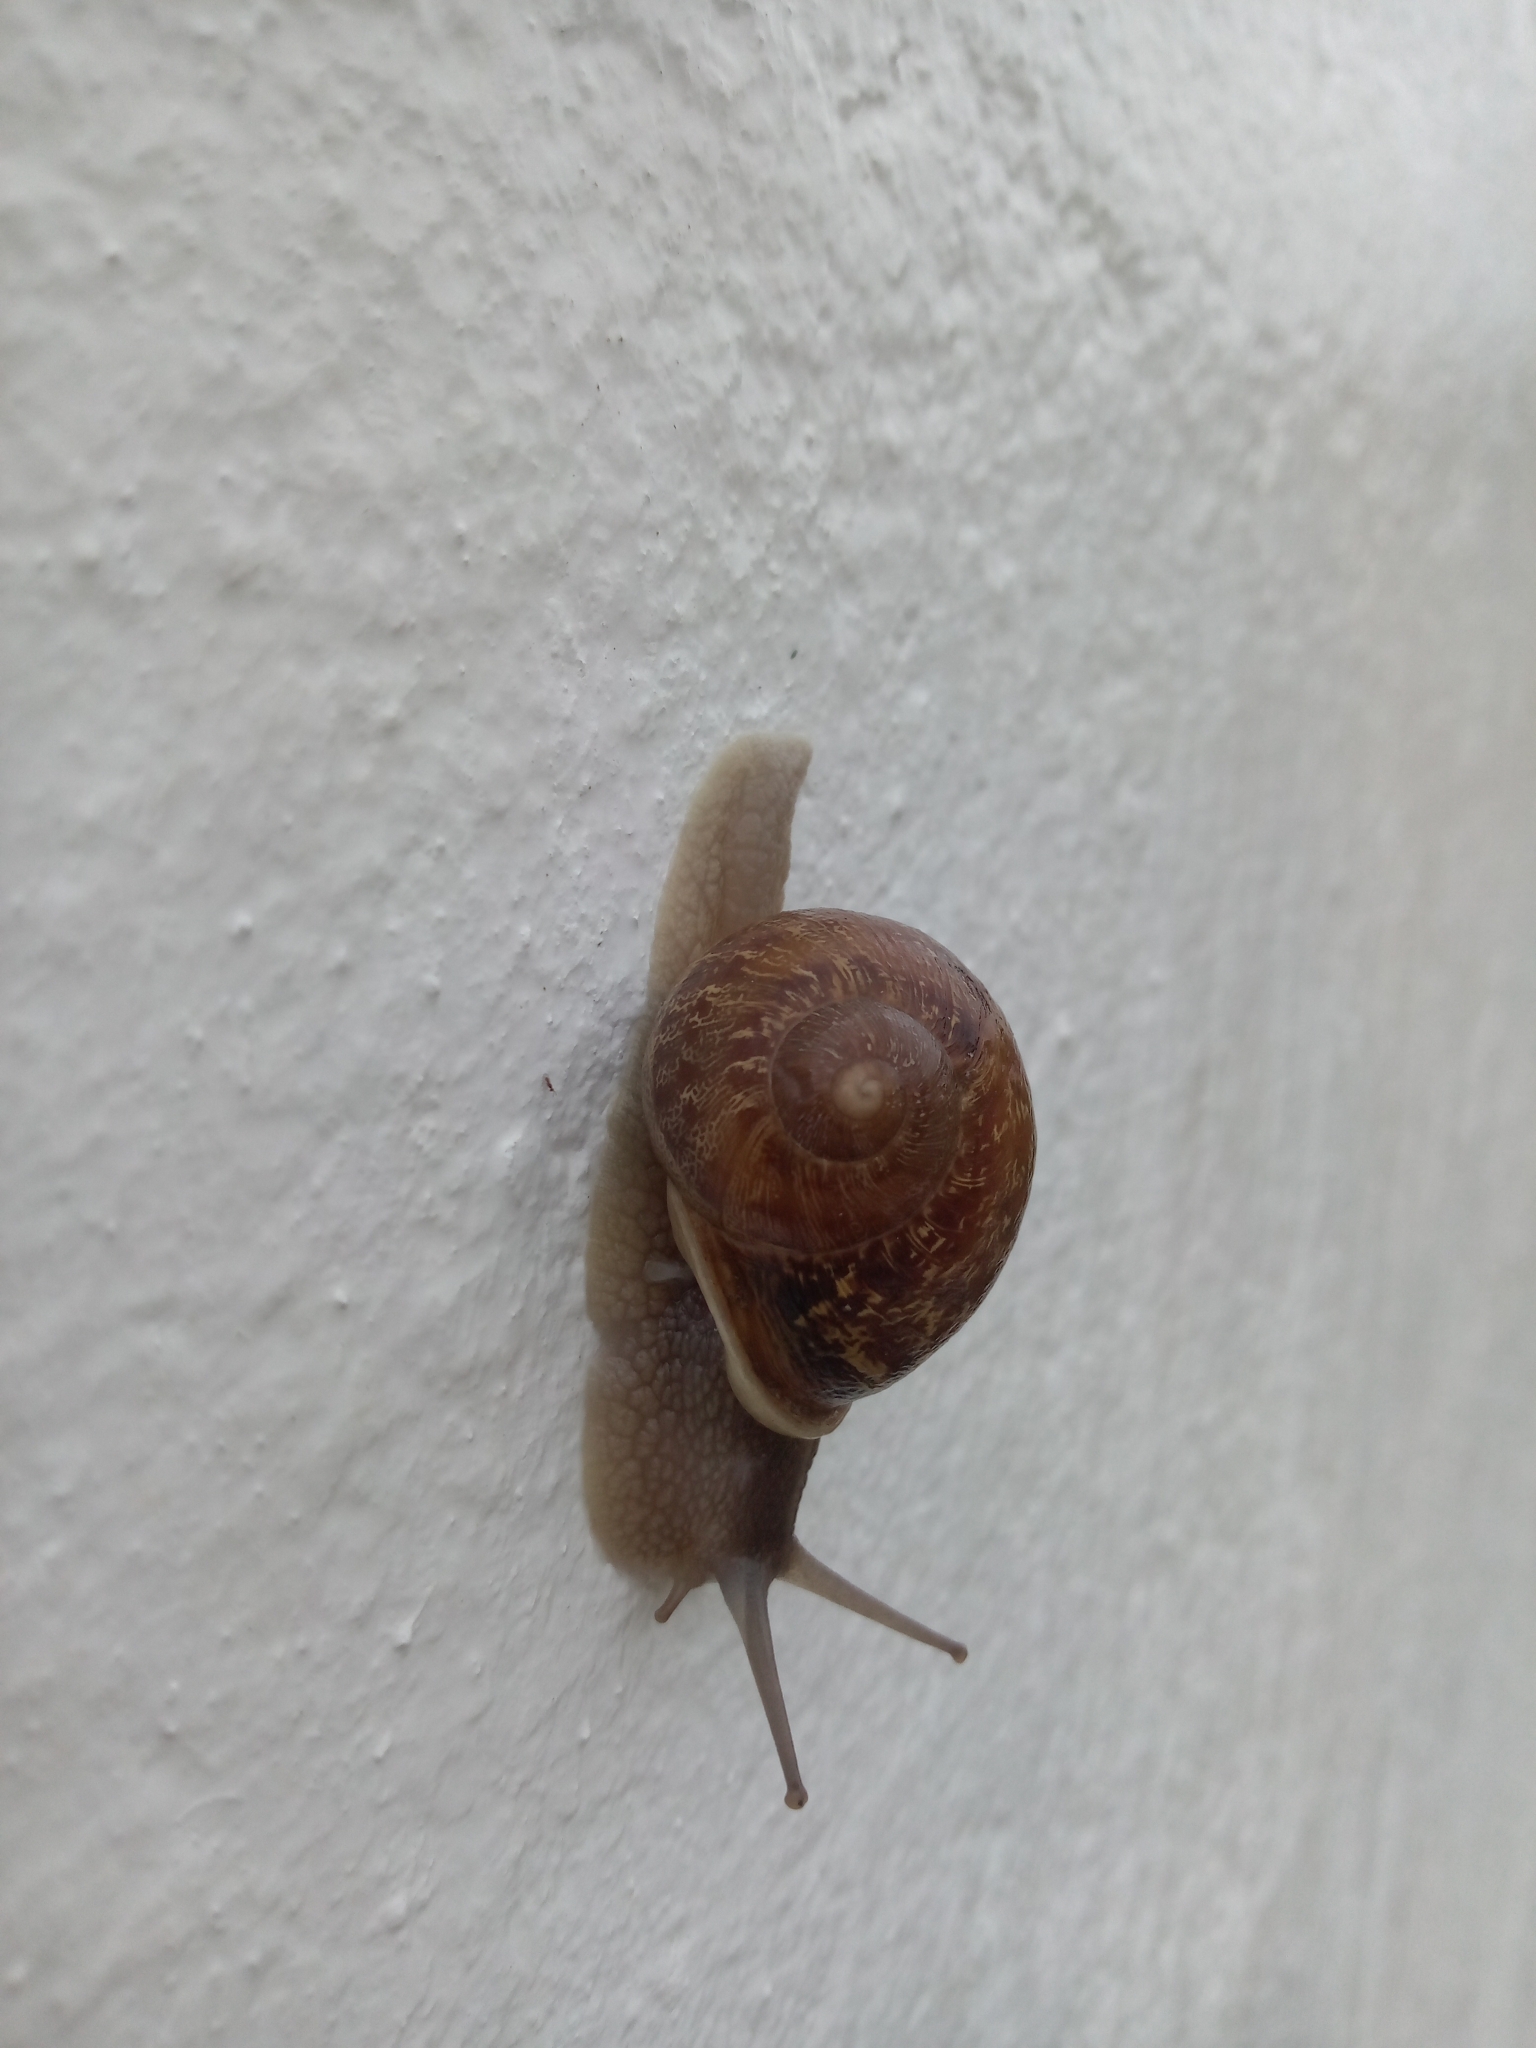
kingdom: Animalia
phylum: Mollusca
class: Gastropoda
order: Stylommatophora
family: Helicidae
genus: Cornu
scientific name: Cornu aspersum
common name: Brown garden snail
